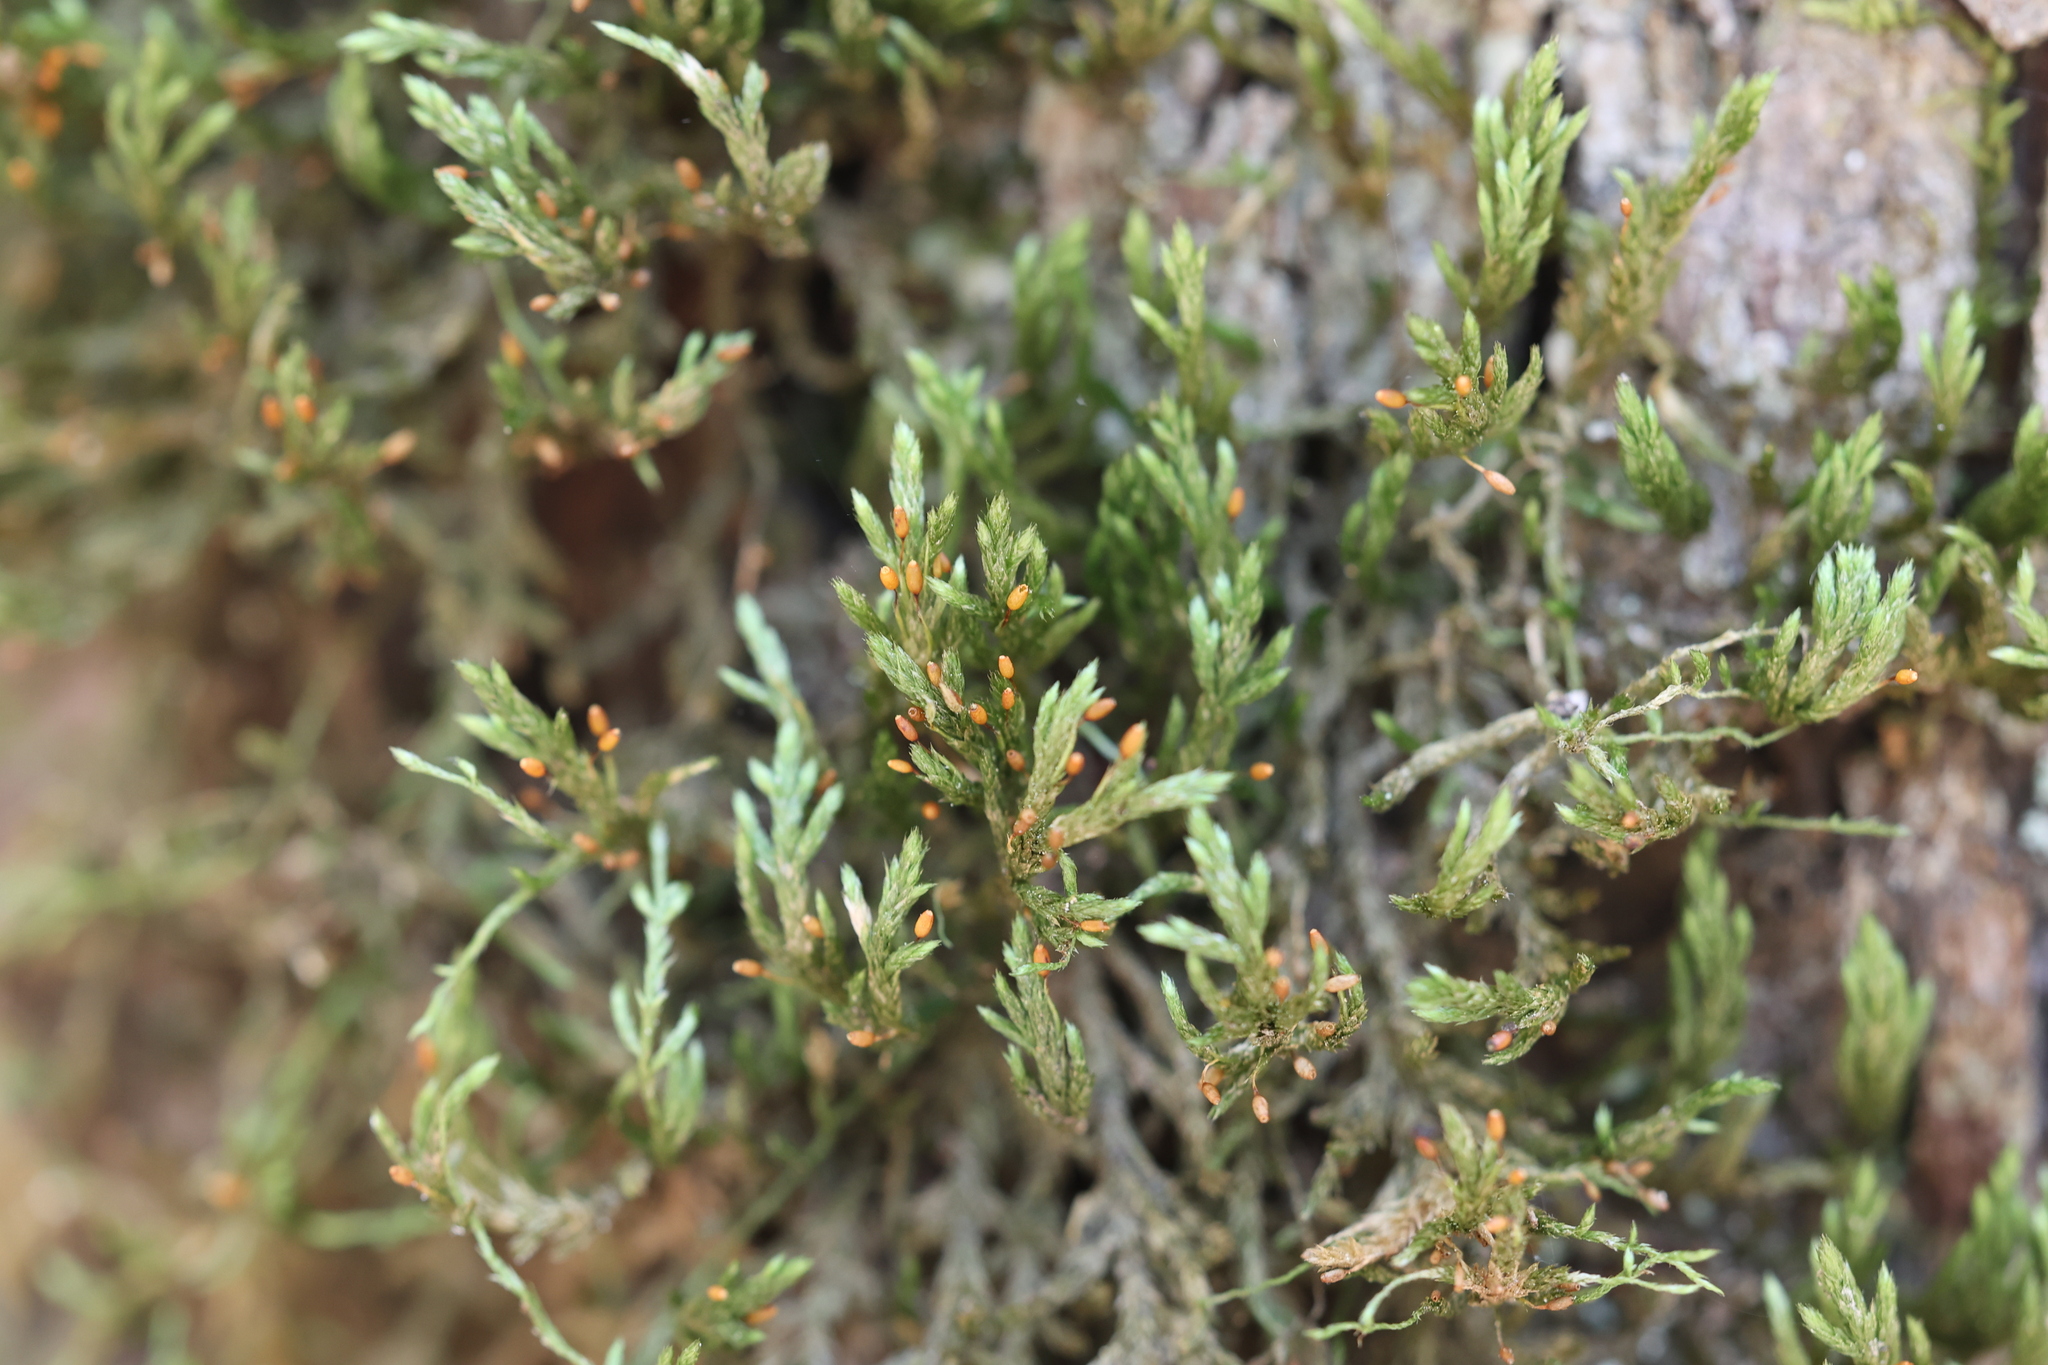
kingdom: Plantae
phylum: Bryophyta
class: Bryopsida
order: Hypnales
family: Neckeraceae
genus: Forsstroemia
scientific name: Forsstroemia trichomitria
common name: Fan moss
